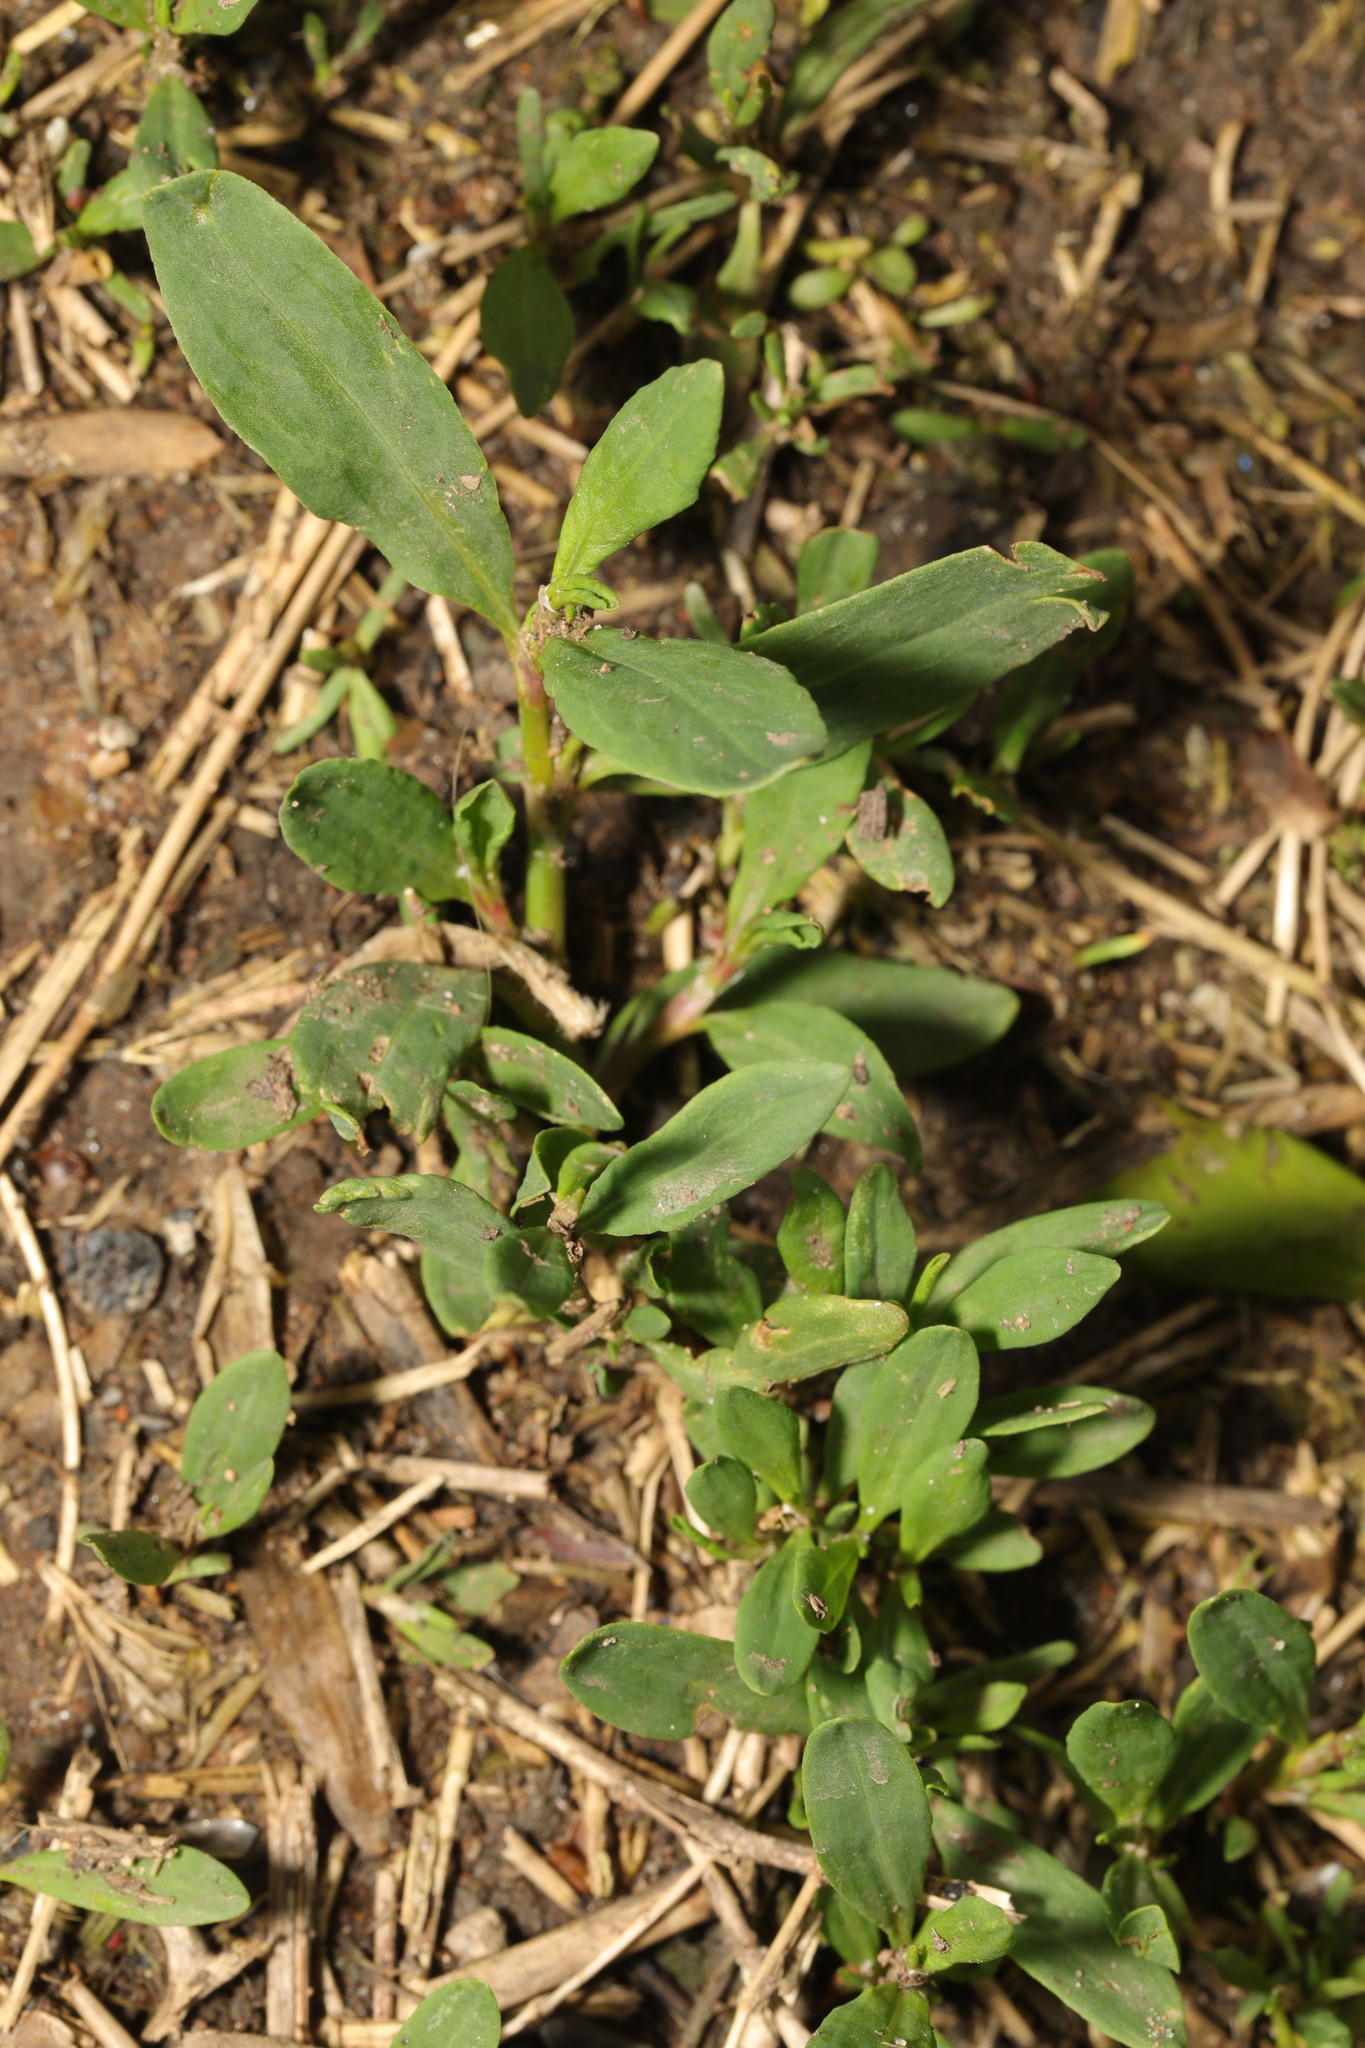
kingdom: Plantae
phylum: Tracheophyta
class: Magnoliopsida
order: Caryophyllales
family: Polygonaceae
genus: Polygonum
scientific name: Polygonum aviculare
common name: Prostrate knotweed
